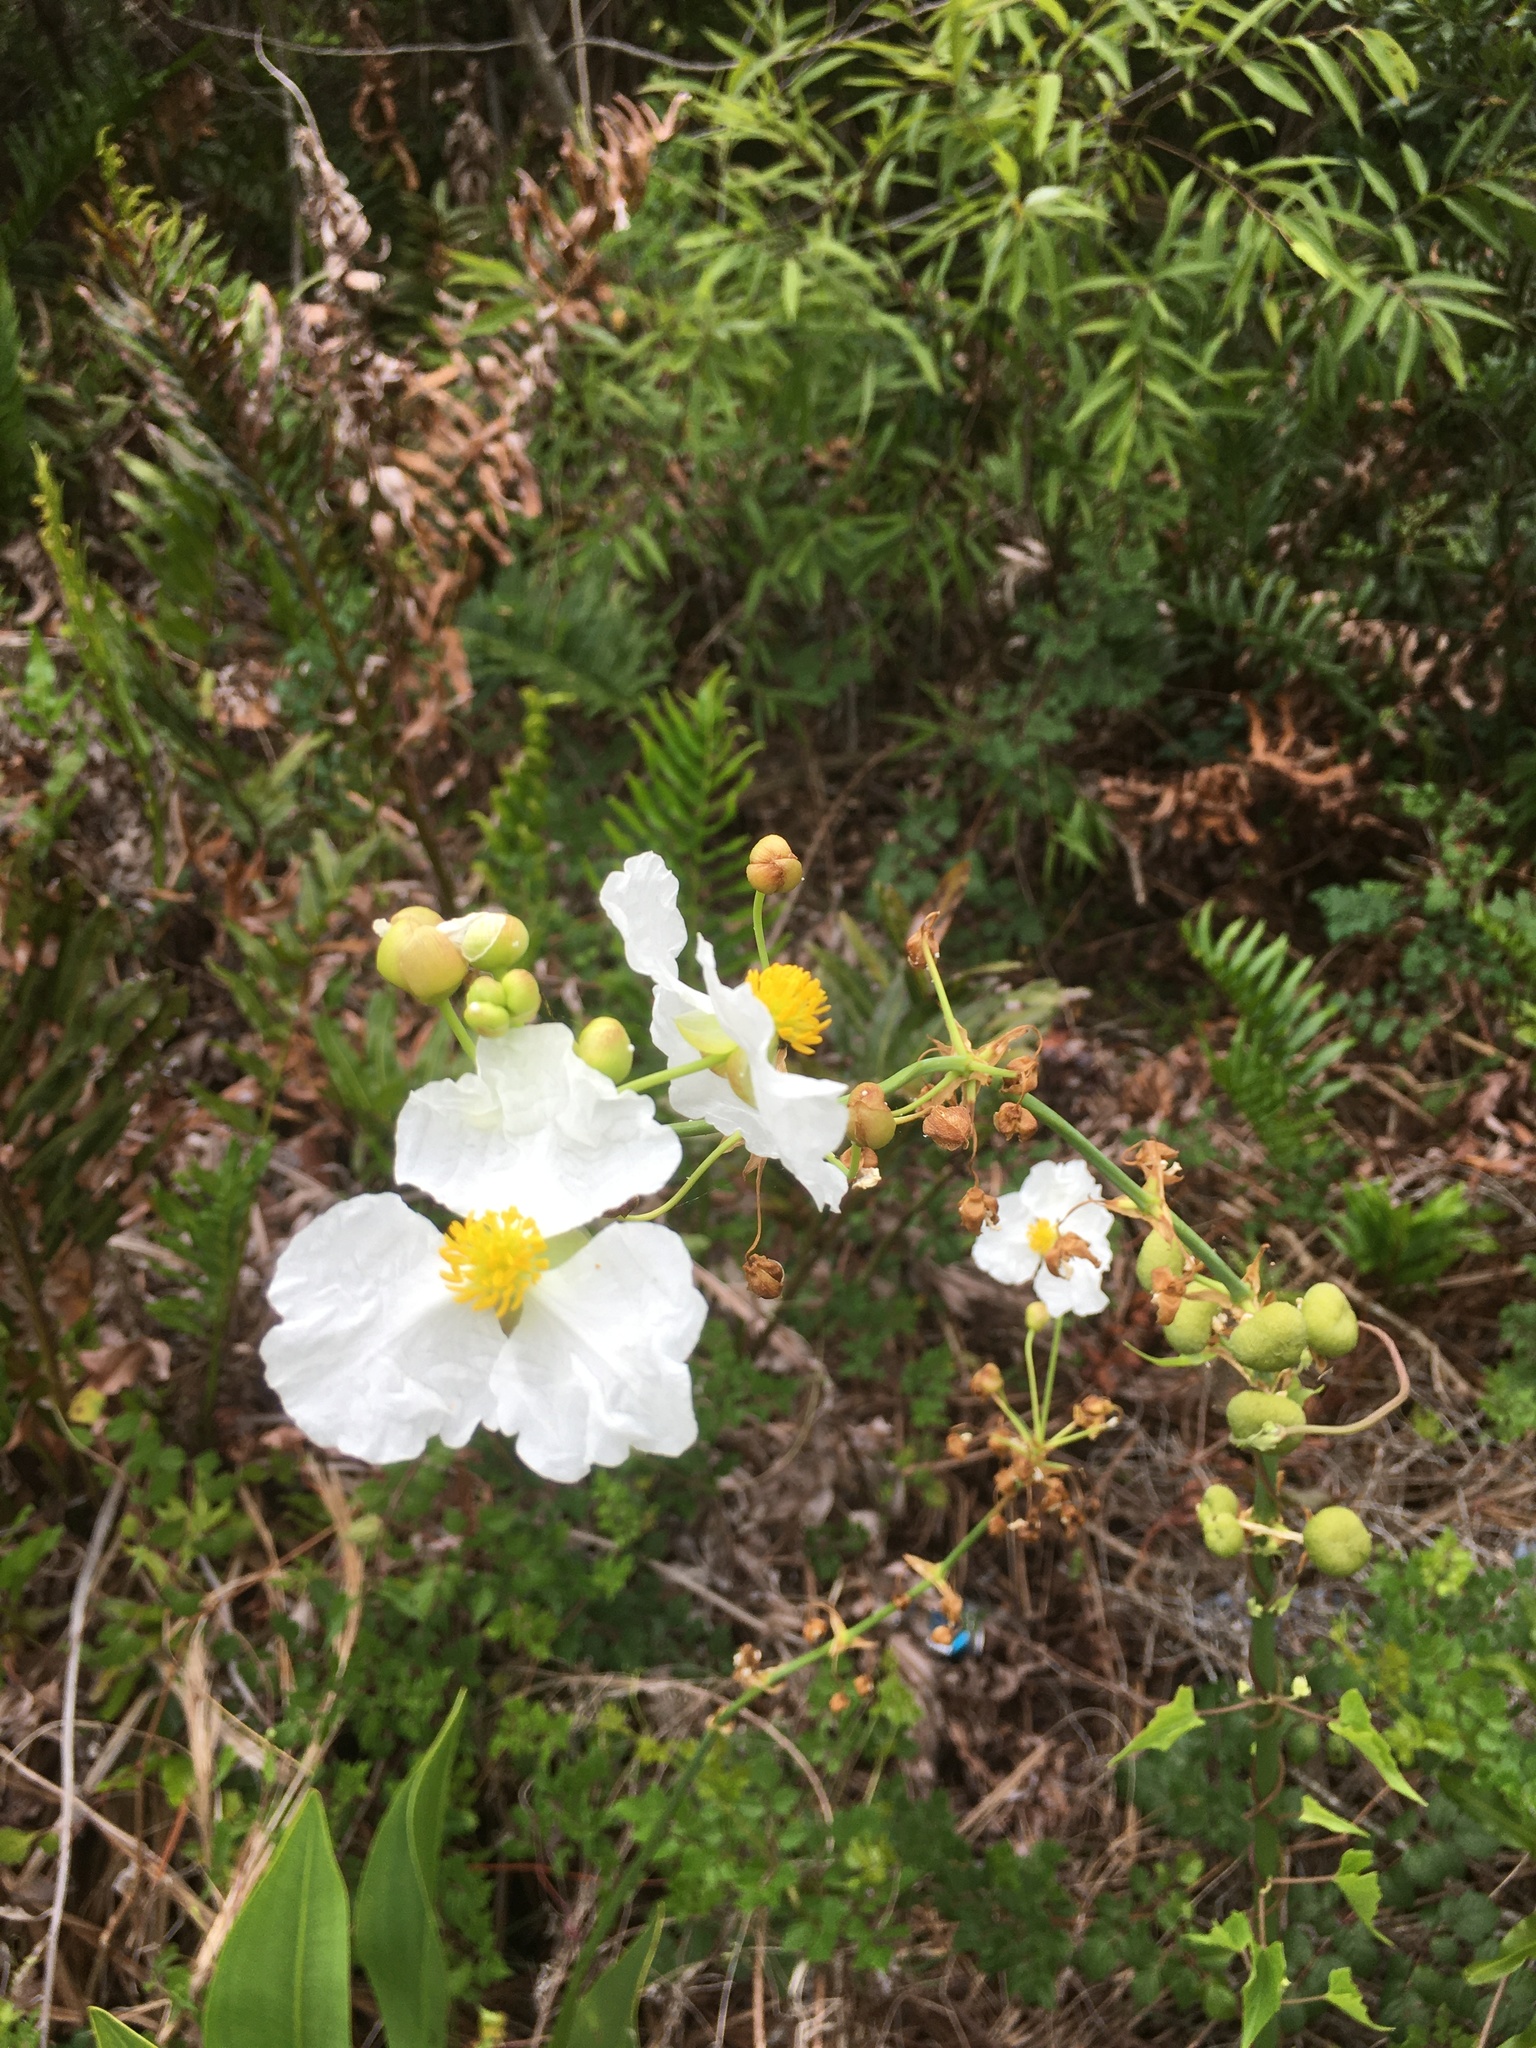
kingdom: Plantae
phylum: Tracheophyta
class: Liliopsida
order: Alismatales
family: Alismataceae
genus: Sagittaria
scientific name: Sagittaria lancifolia
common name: Lance-leaf arrowhead
